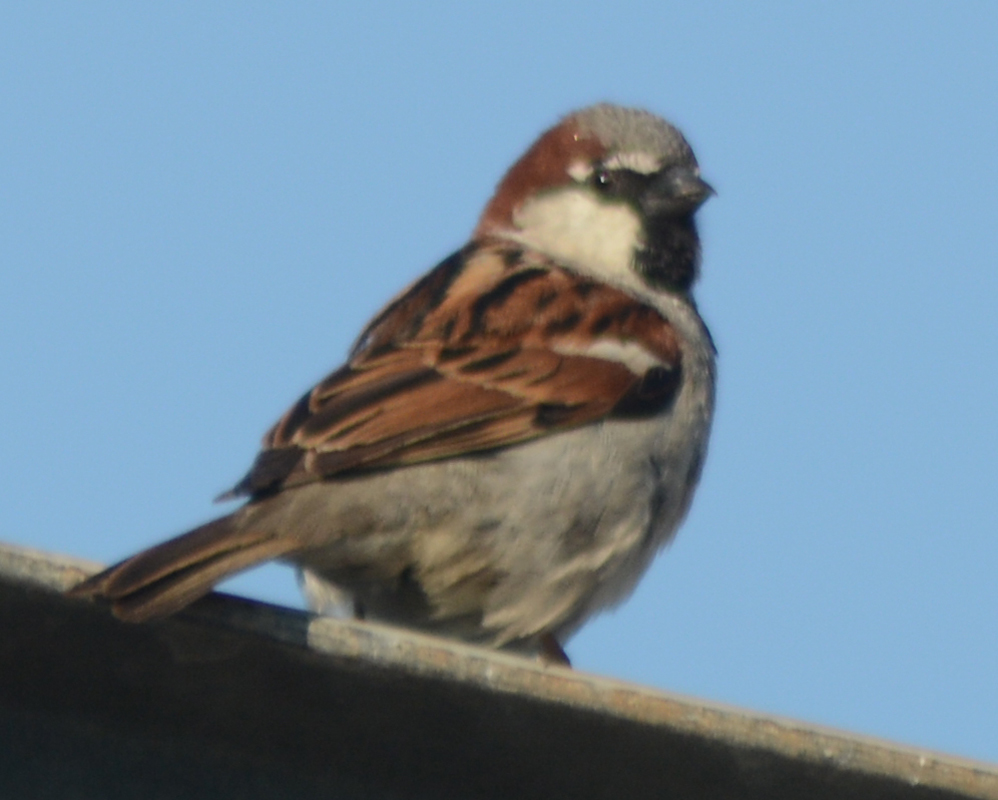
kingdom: Animalia
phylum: Chordata
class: Aves
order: Passeriformes
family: Passeridae
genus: Passer
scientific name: Passer domesticus
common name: House sparrow
